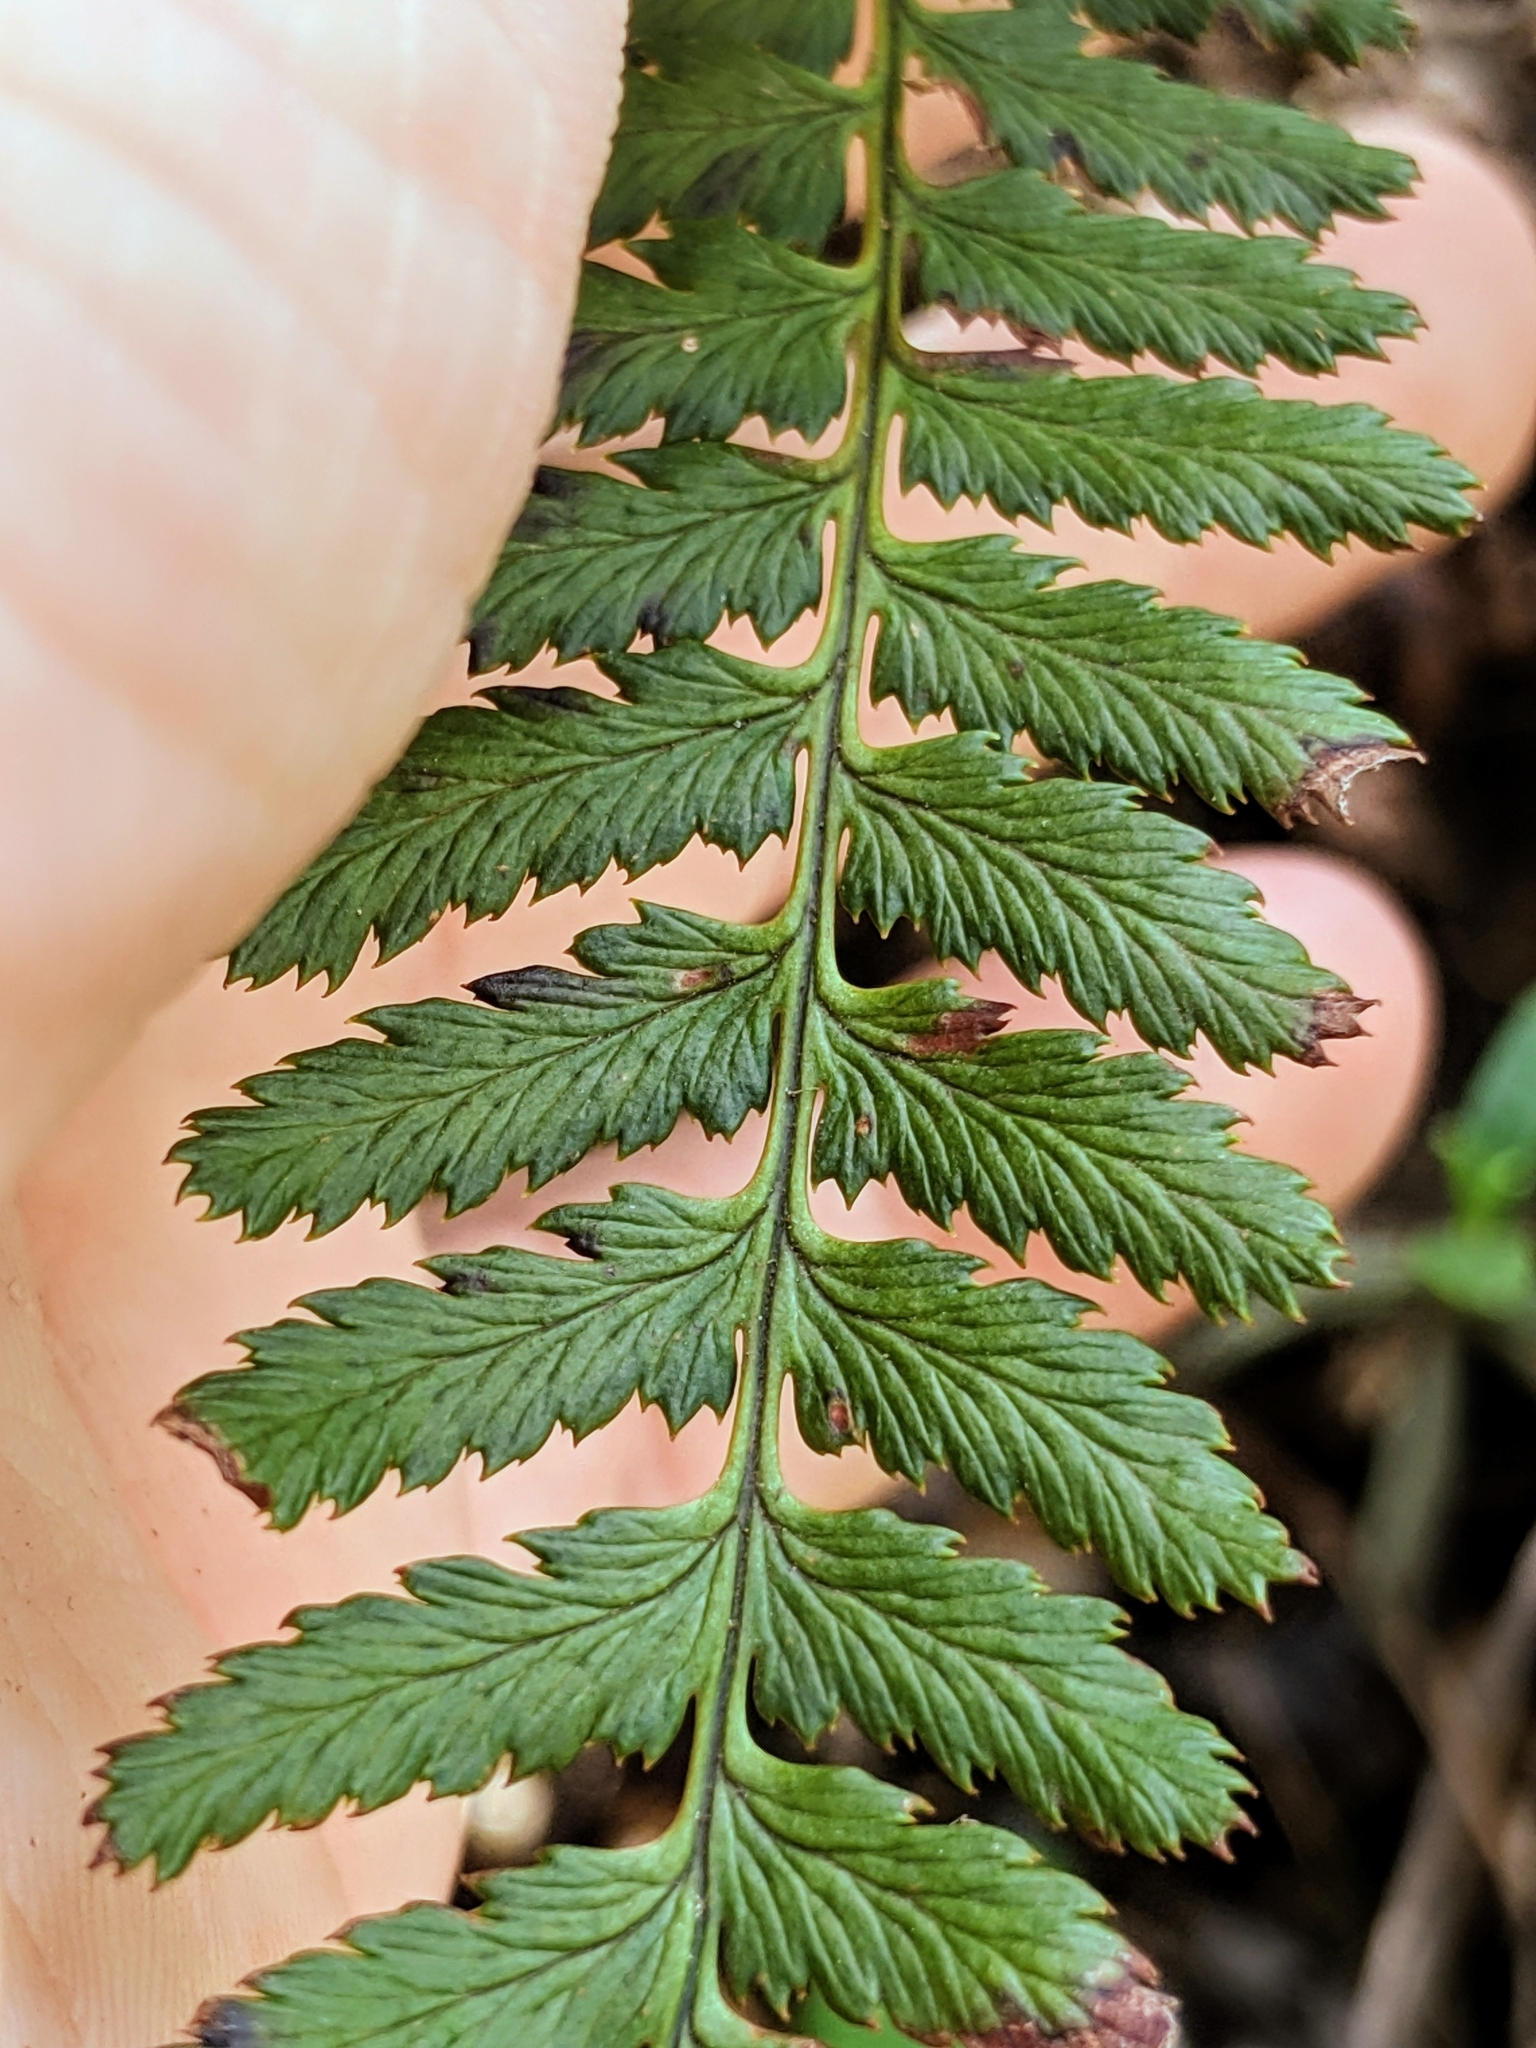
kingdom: Plantae
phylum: Tracheophyta
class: Polypodiopsida
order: Polypodiales
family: Dryopteridaceae
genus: Dryopteris
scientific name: Dryopteris arguta
